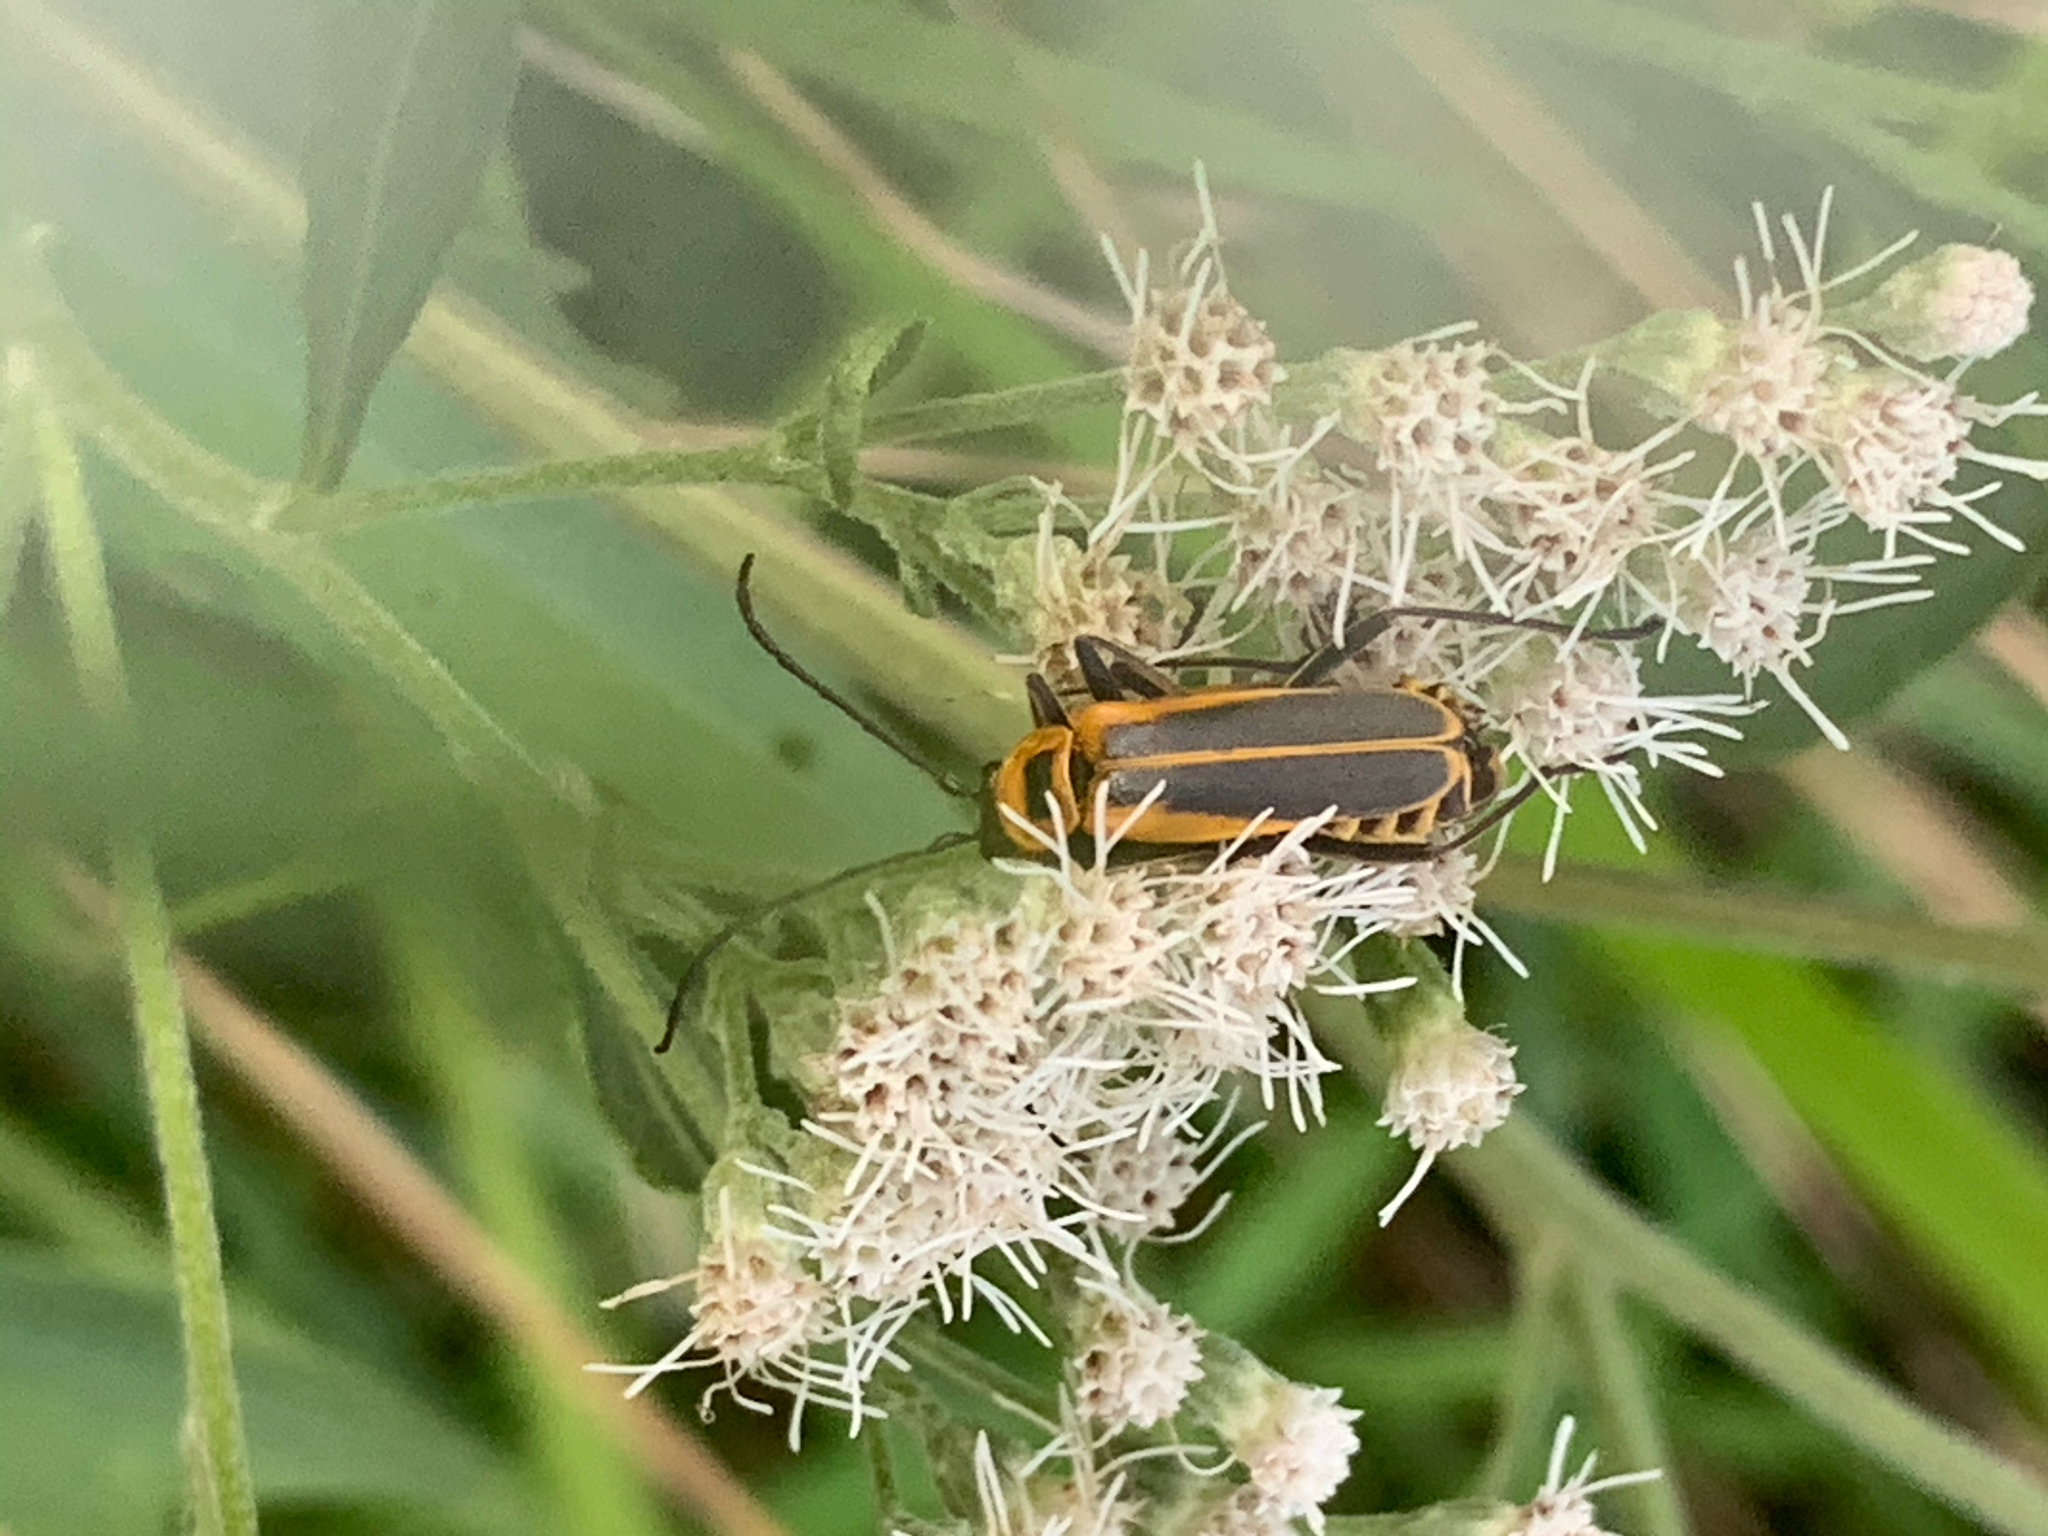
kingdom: Animalia
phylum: Arthropoda
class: Insecta
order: Coleoptera
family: Cantharidae
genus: Chauliognathus
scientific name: Chauliognathus pensylvanicus
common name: Goldenrod soldier beetle
